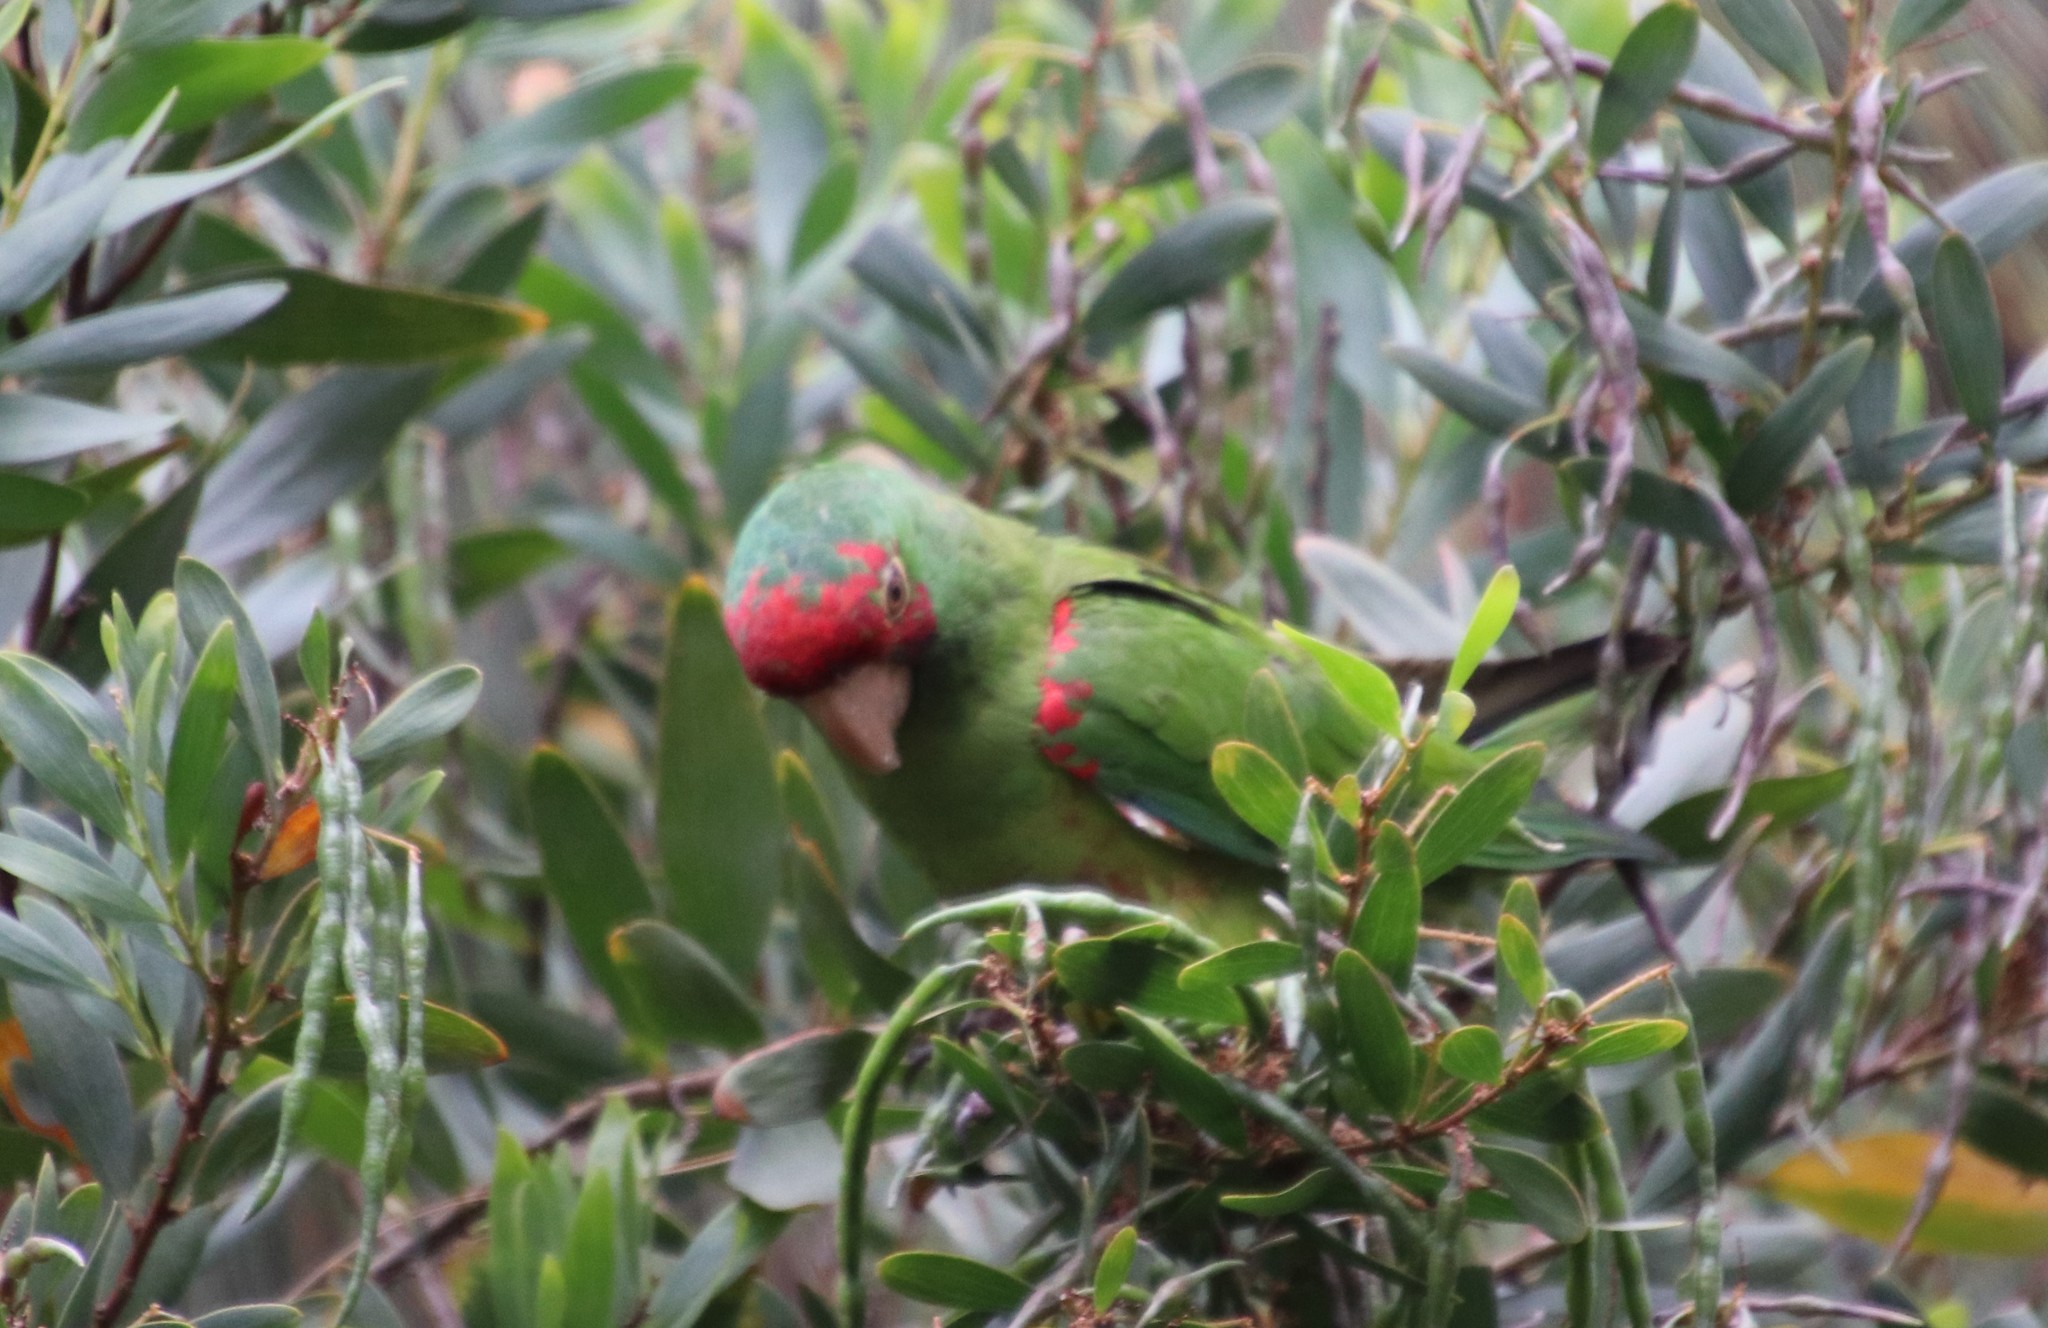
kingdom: Animalia
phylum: Chordata
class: Aves
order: Psittaciformes
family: Psittacidae
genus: Aratinga
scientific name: Aratinga erythrogenys
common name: Red-masked parakeet
